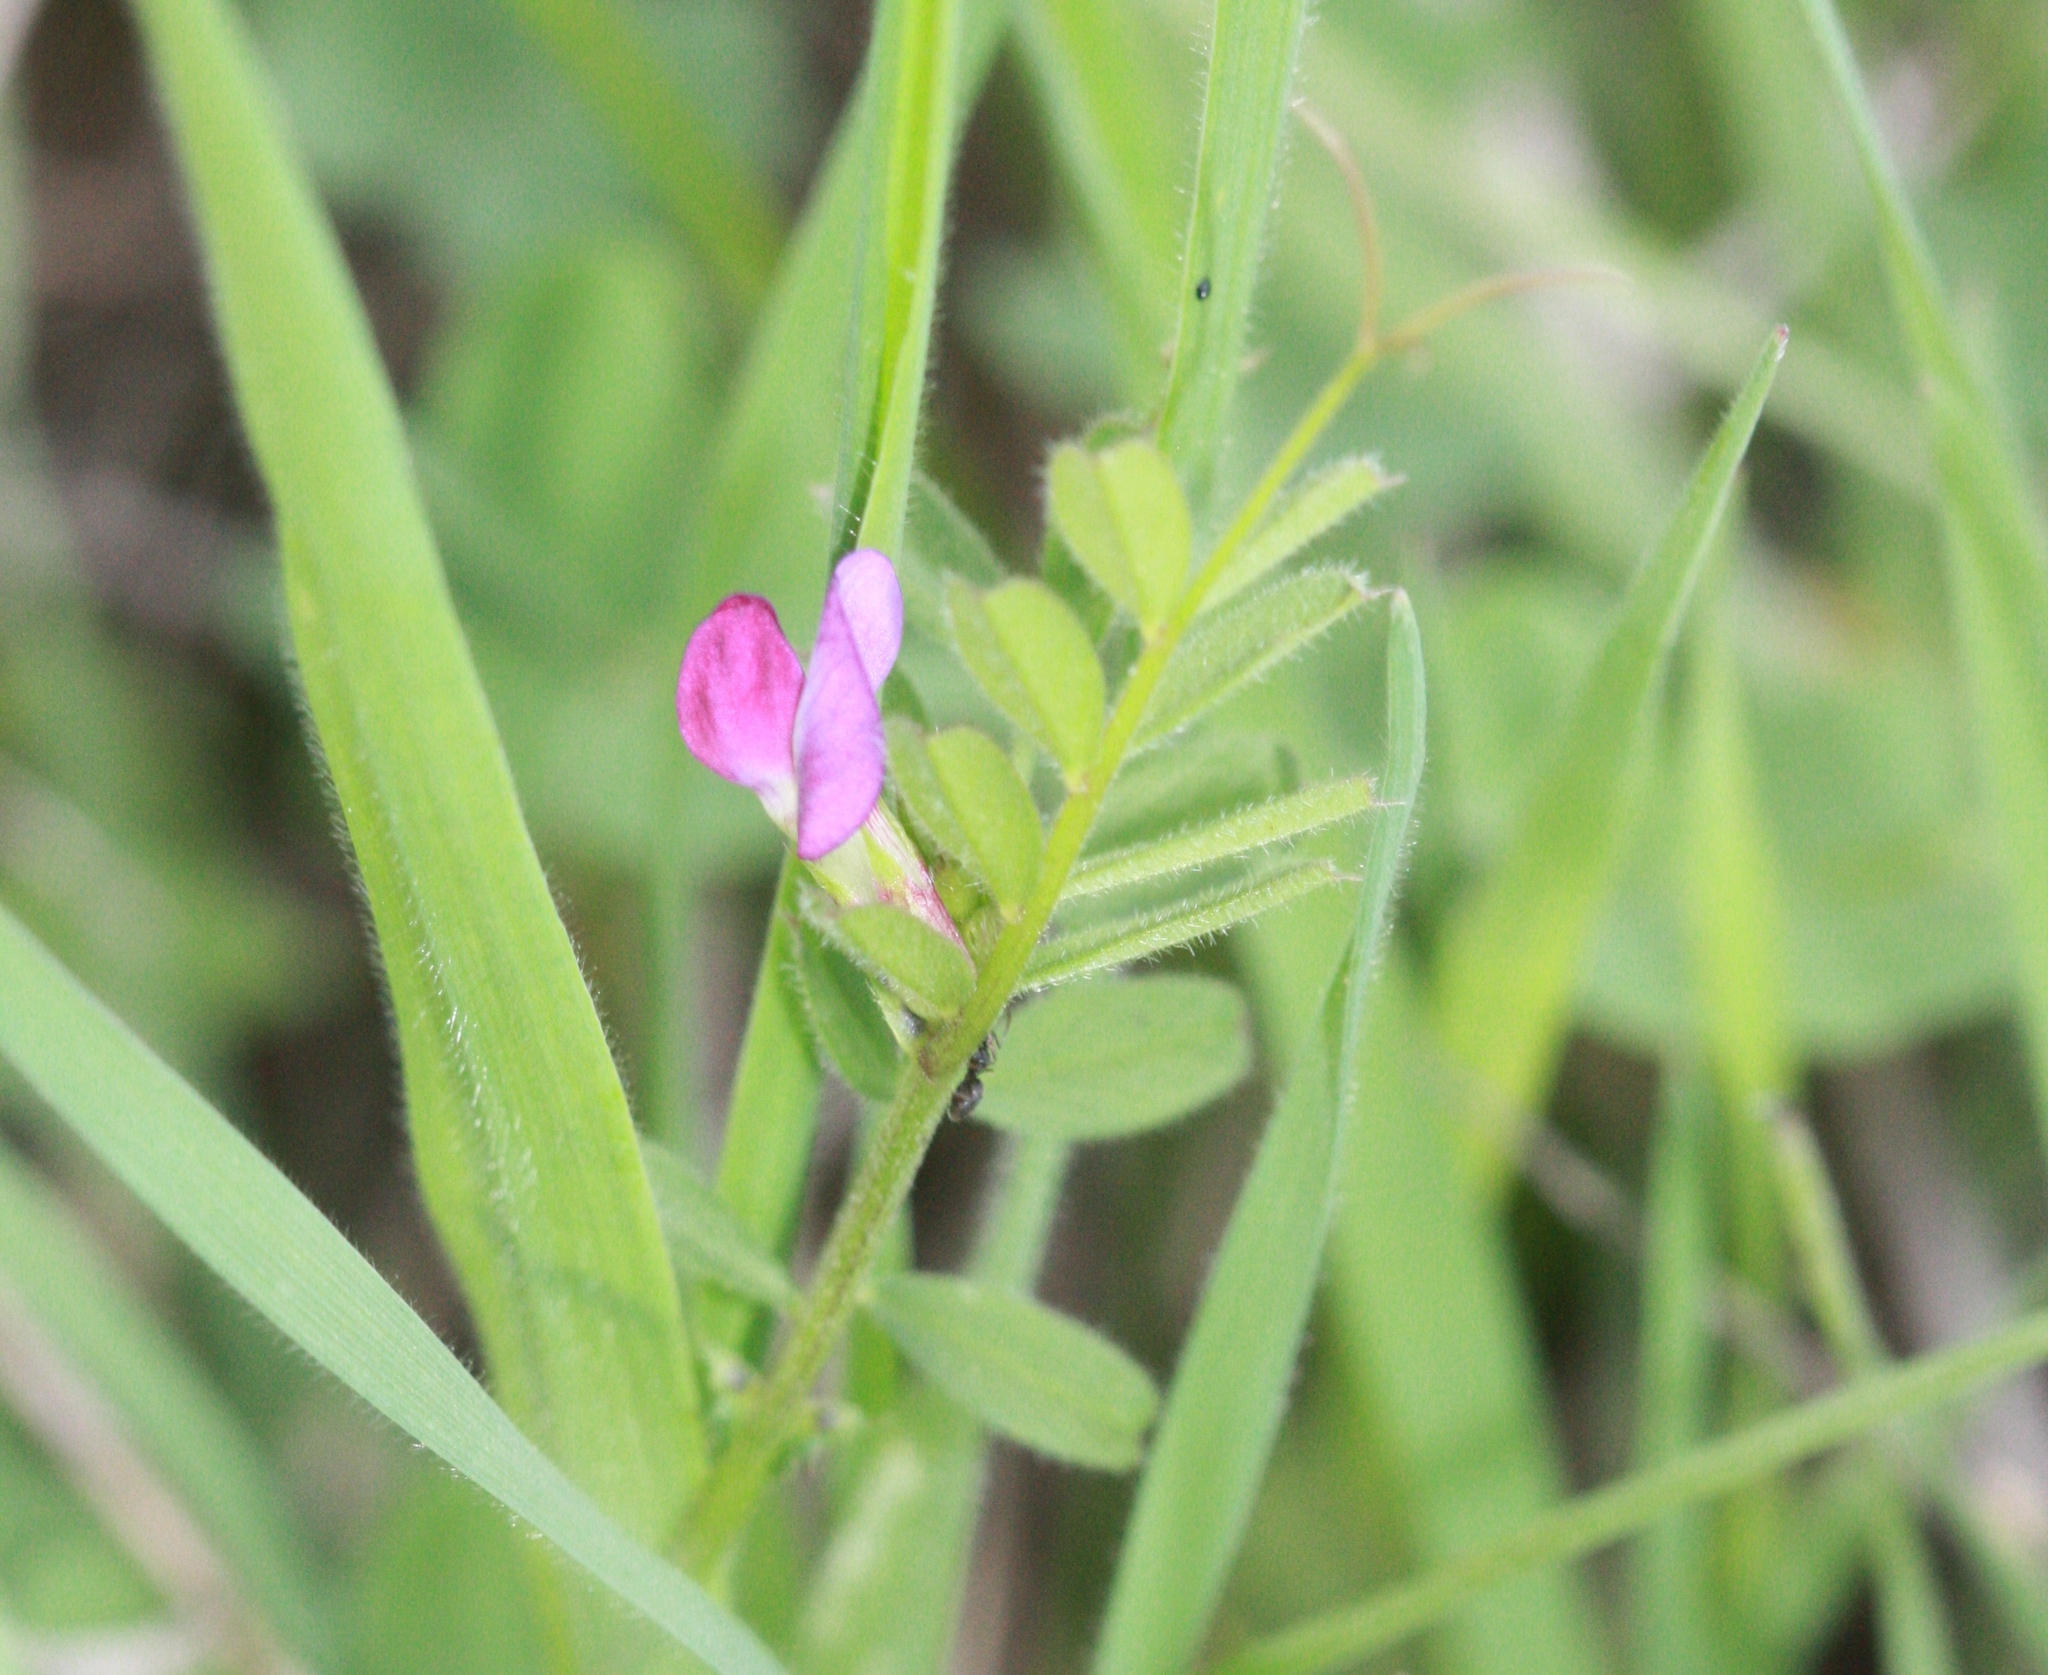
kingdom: Plantae
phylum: Tracheophyta
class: Magnoliopsida
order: Fabales
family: Fabaceae
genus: Vicia
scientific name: Vicia sativa
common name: Garden vetch
